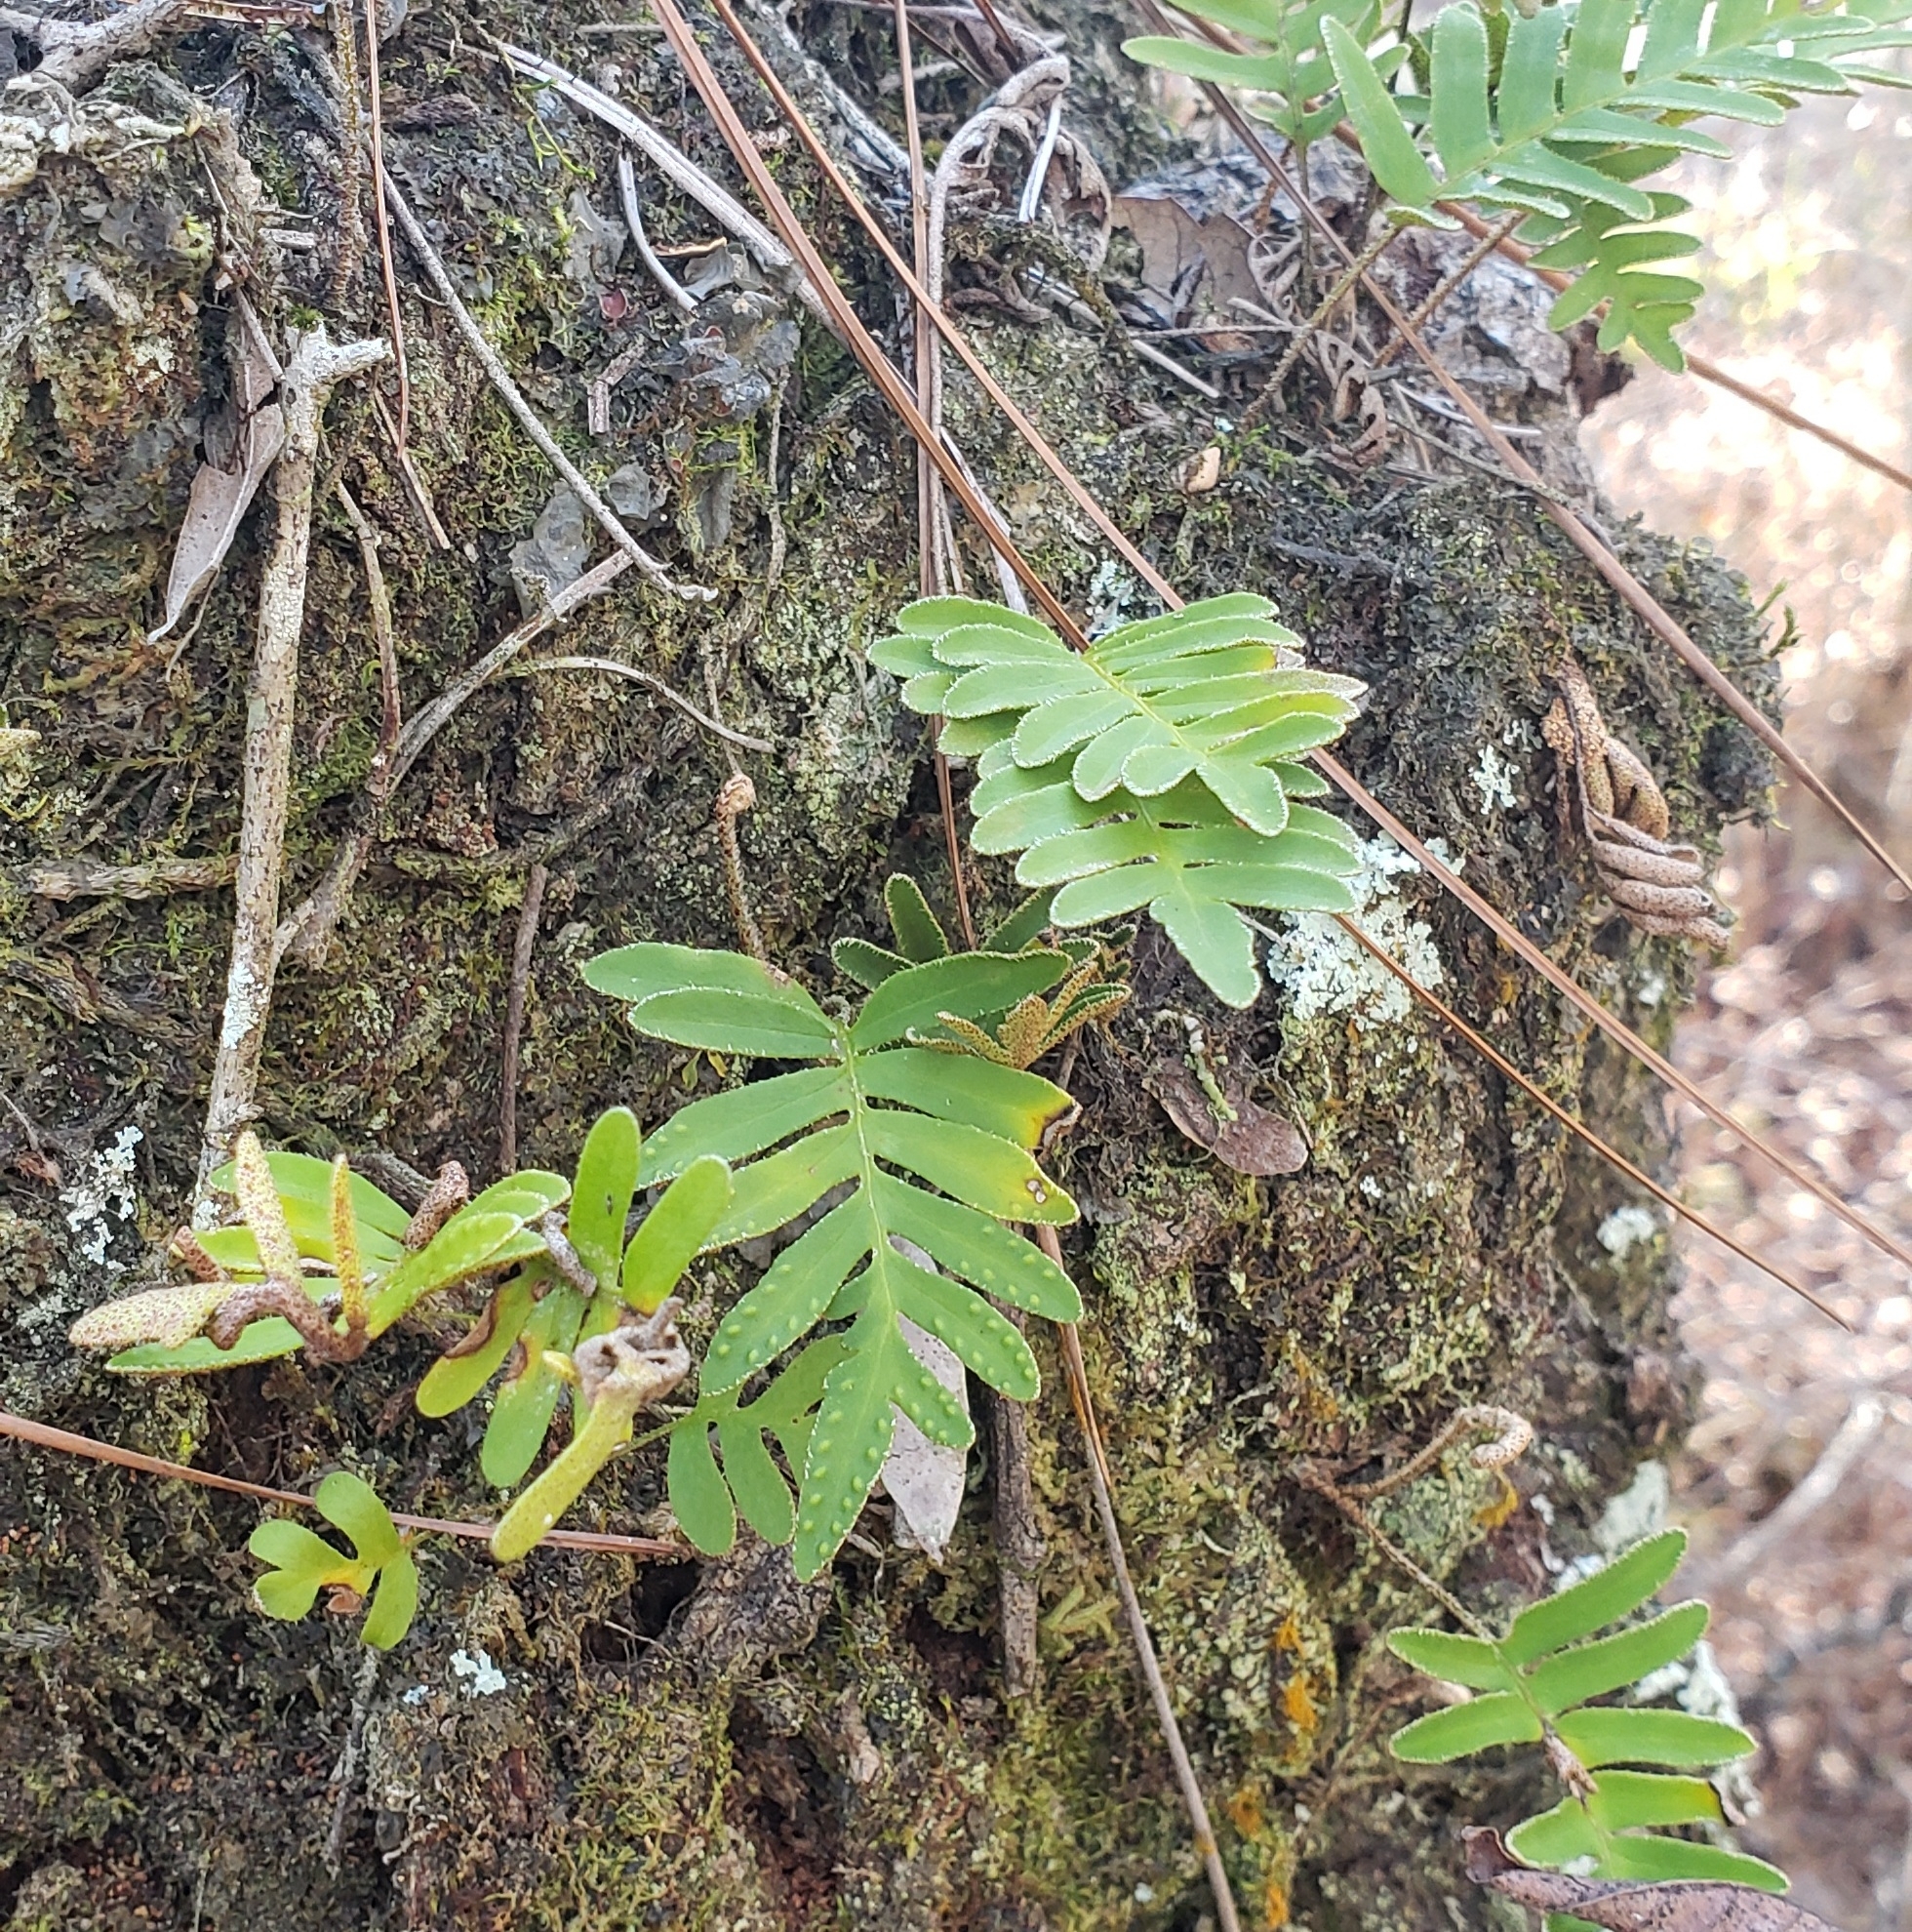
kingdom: Plantae
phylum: Tracheophyta
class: Polypodiopsida
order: Polypodiales
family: Polypodiaceae
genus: Pleopeltis
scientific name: Pleopeltis michauxiana
